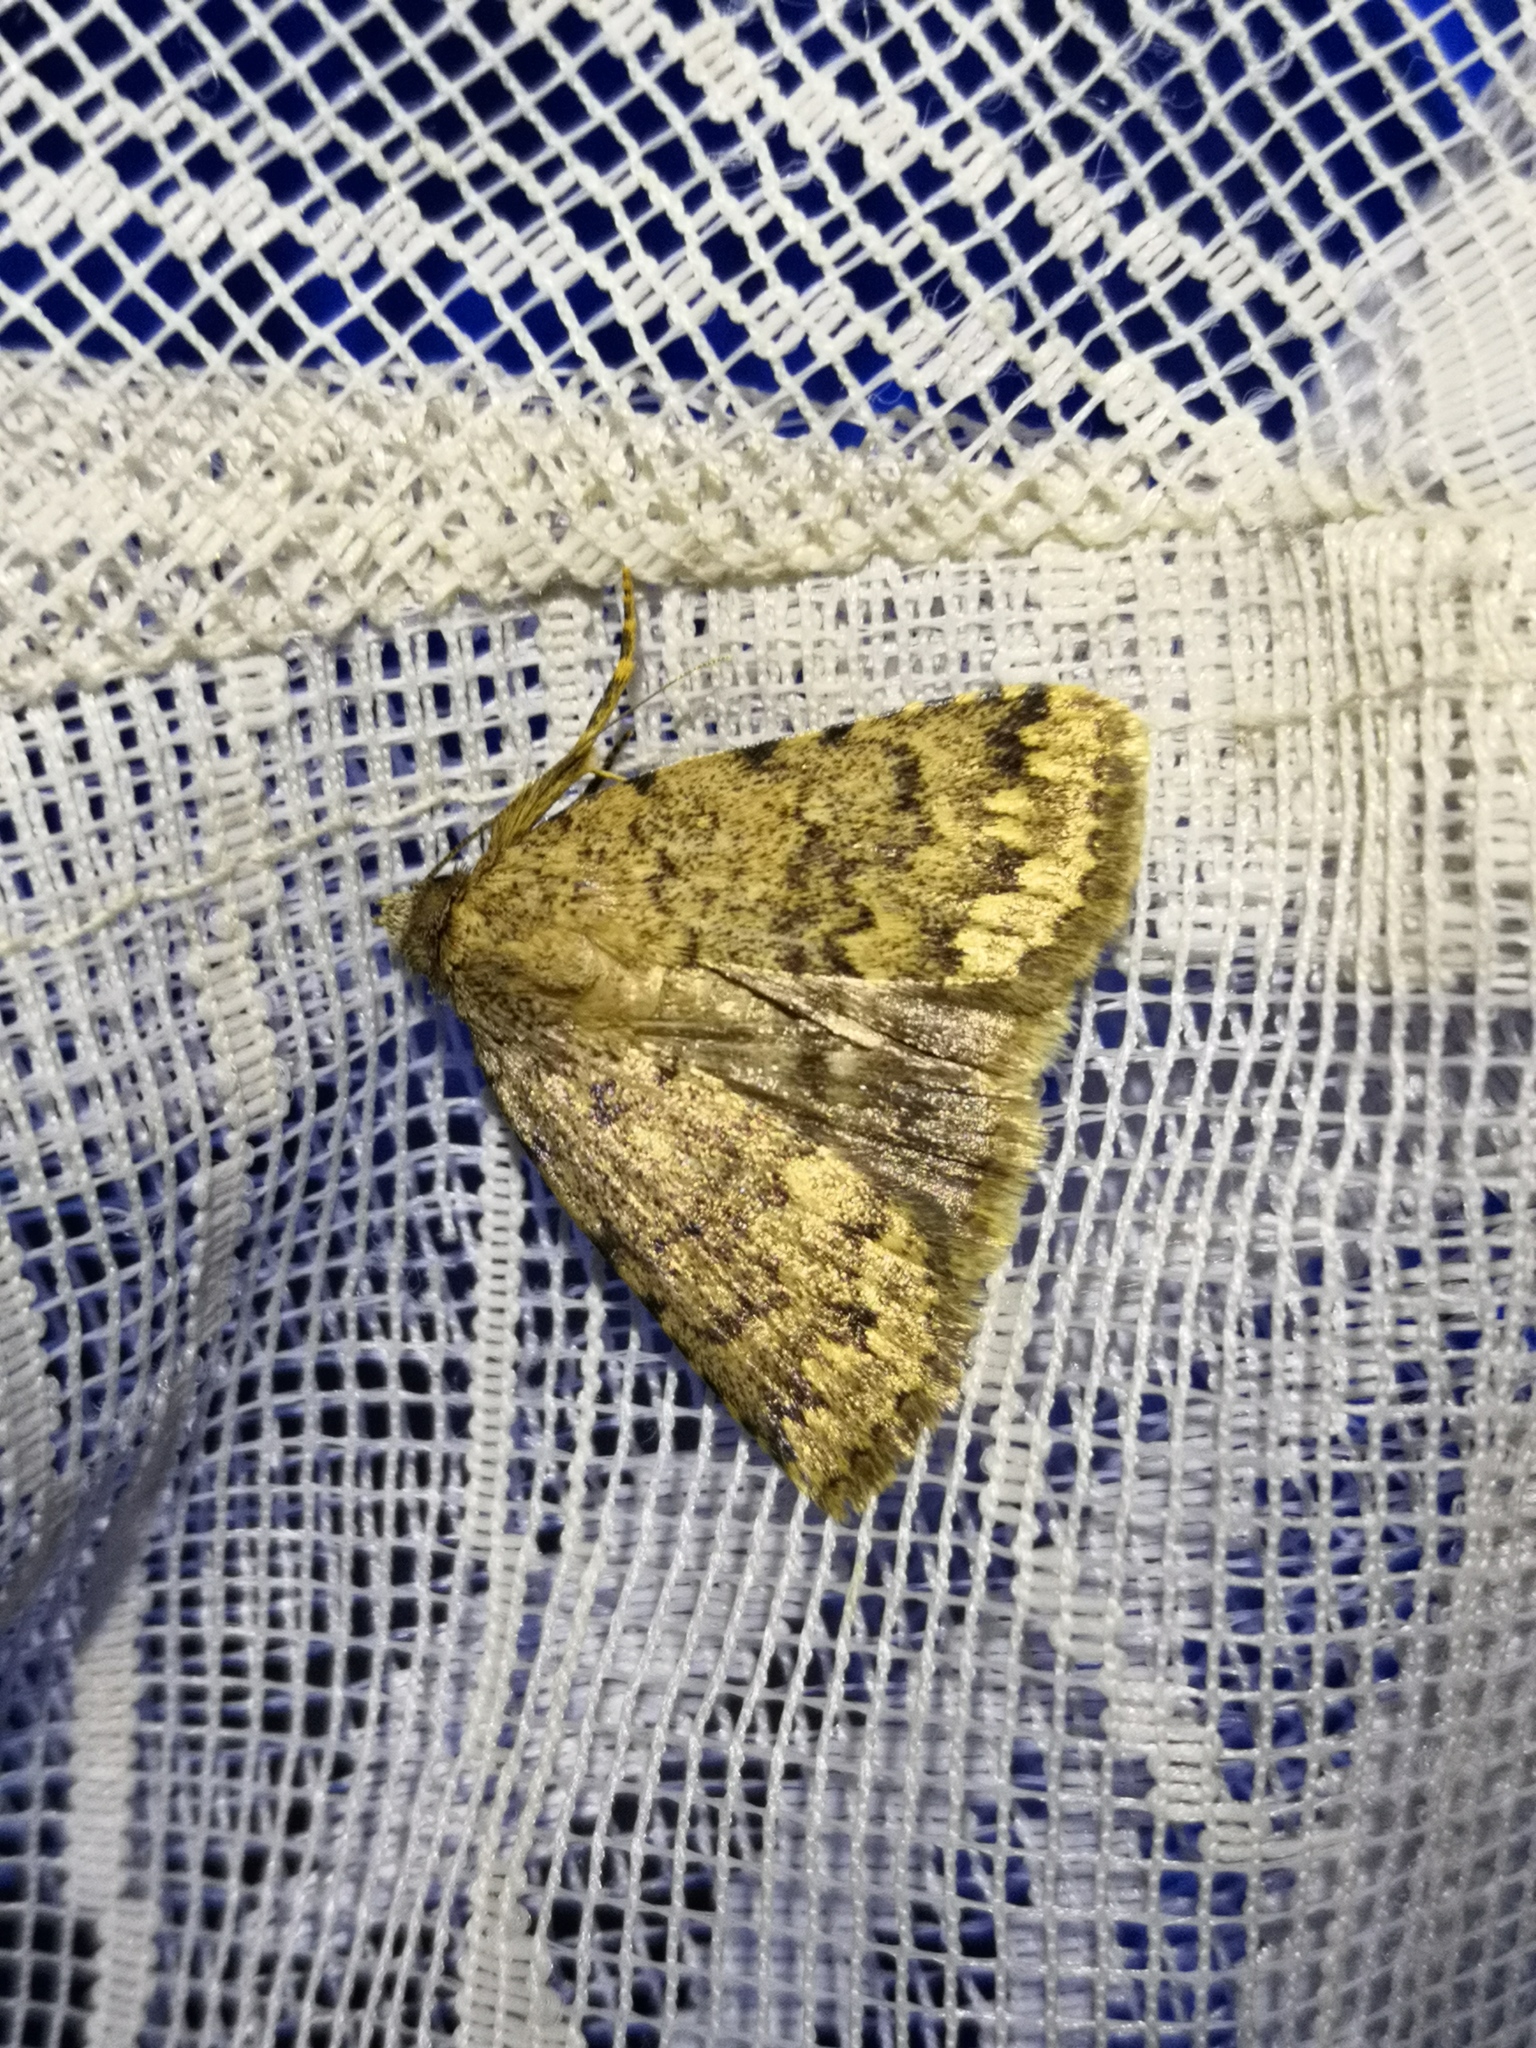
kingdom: Animalia
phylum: Arthropoda
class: Insecta
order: Lepidoptera
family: Erebidae
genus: Autophila
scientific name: Autophila anaphanes
